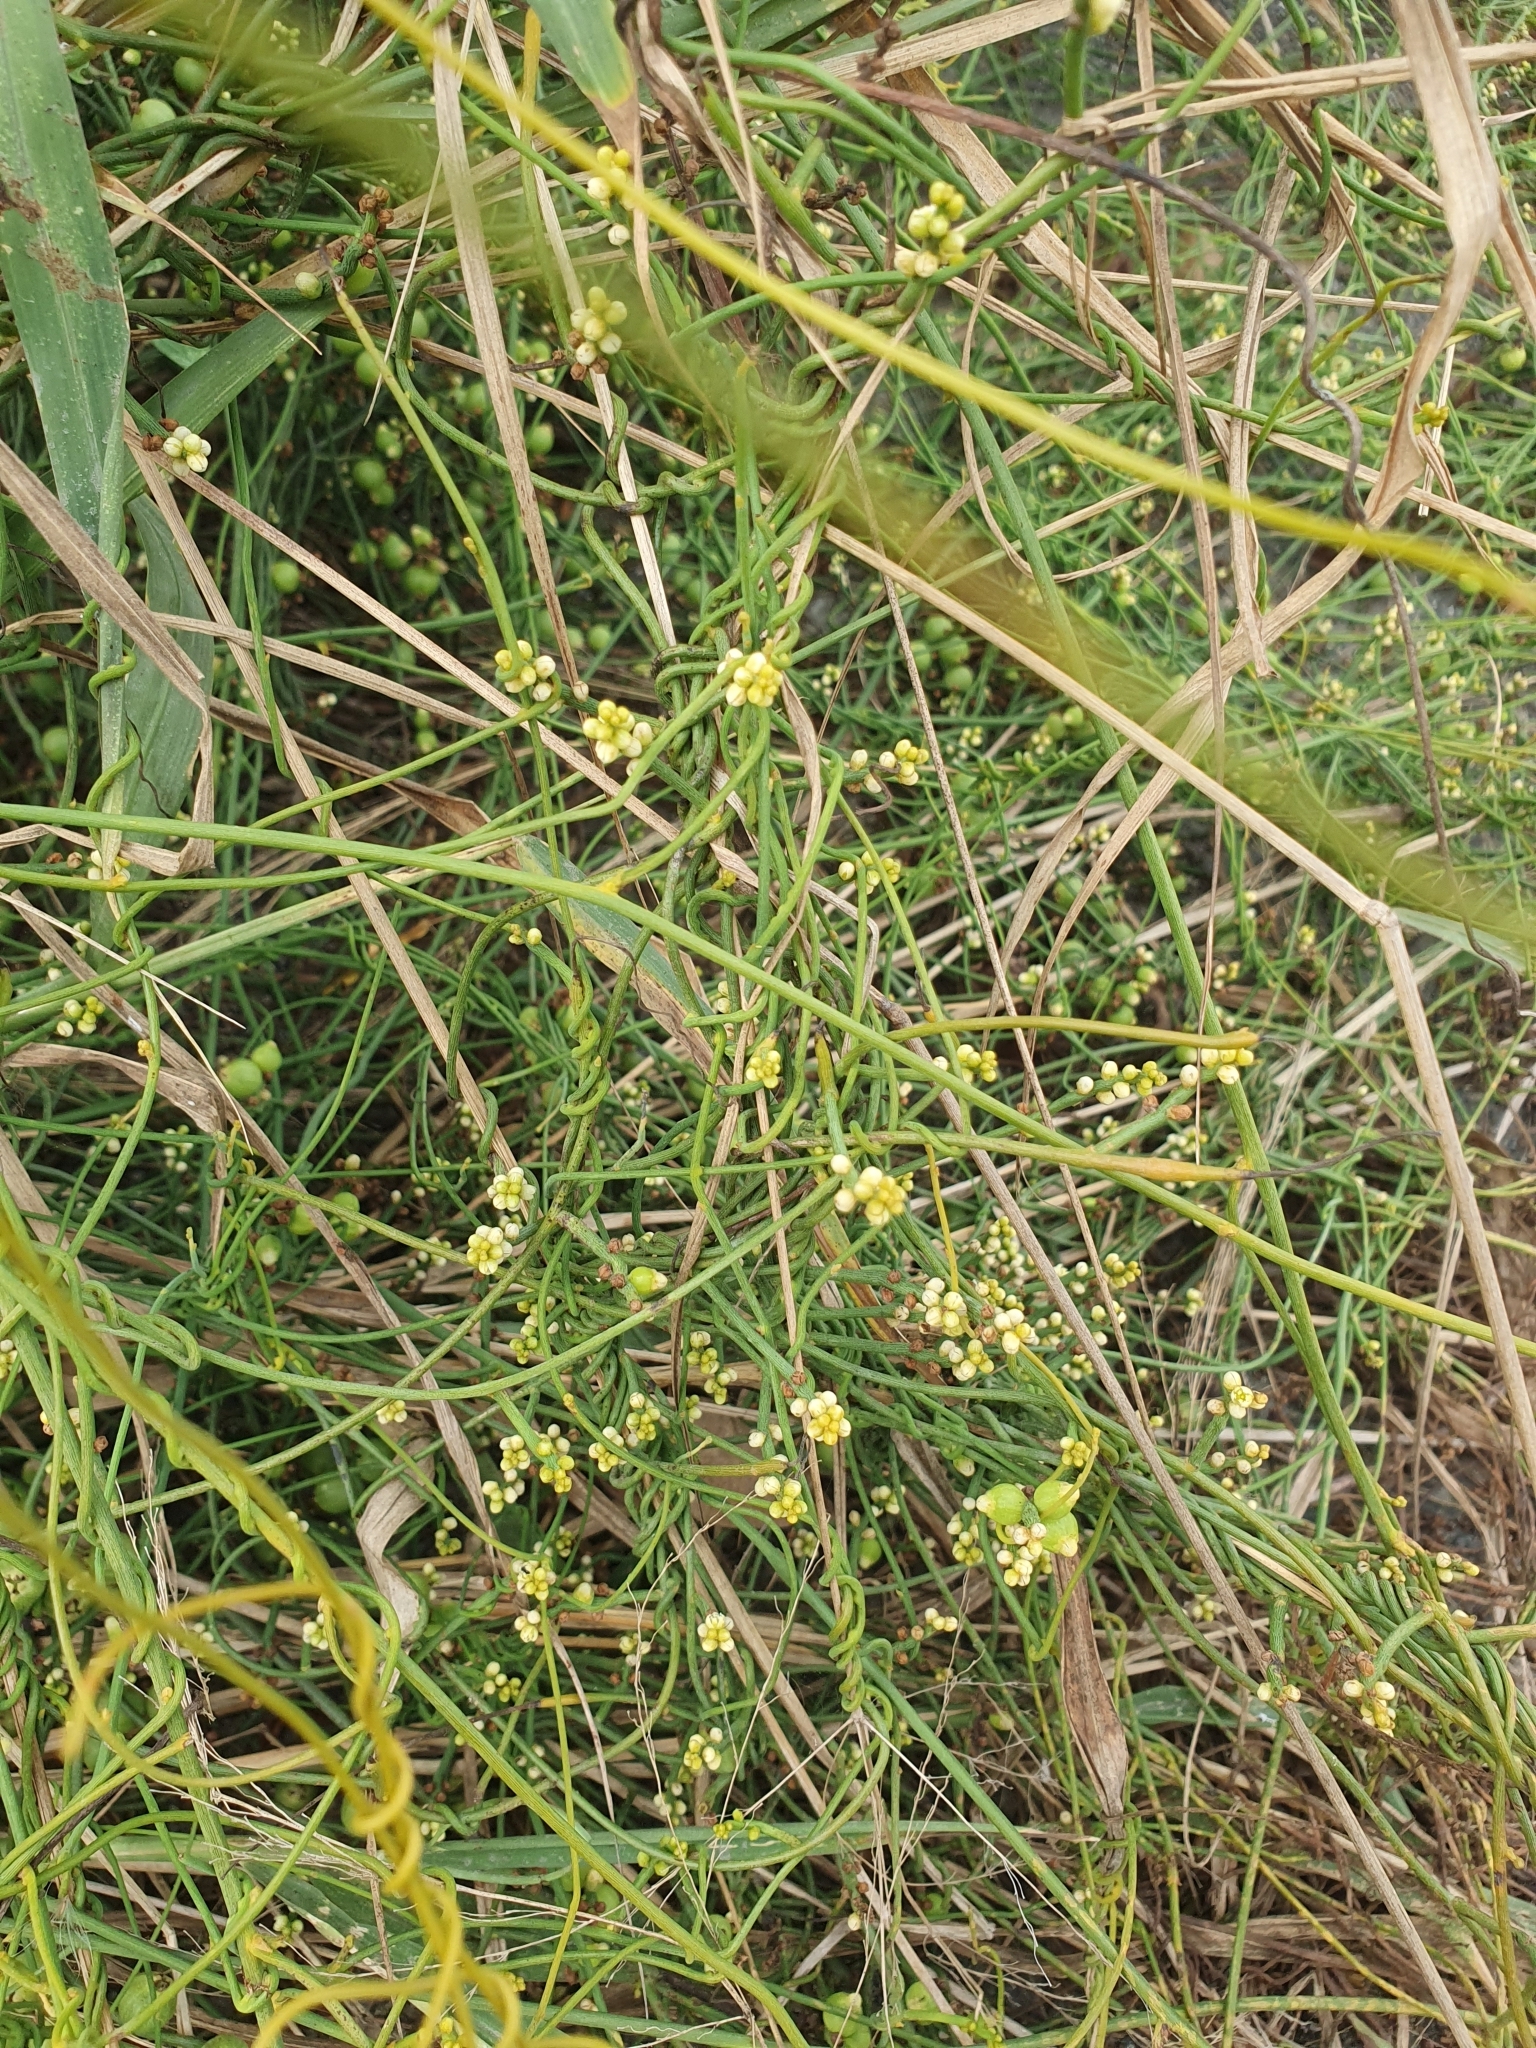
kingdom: Plantae
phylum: Tracheophyta
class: Magnoliopsida
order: Laurales
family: Lauraceae
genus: Cassytha
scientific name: Cassytha filiformis
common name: Dodder-laurel
